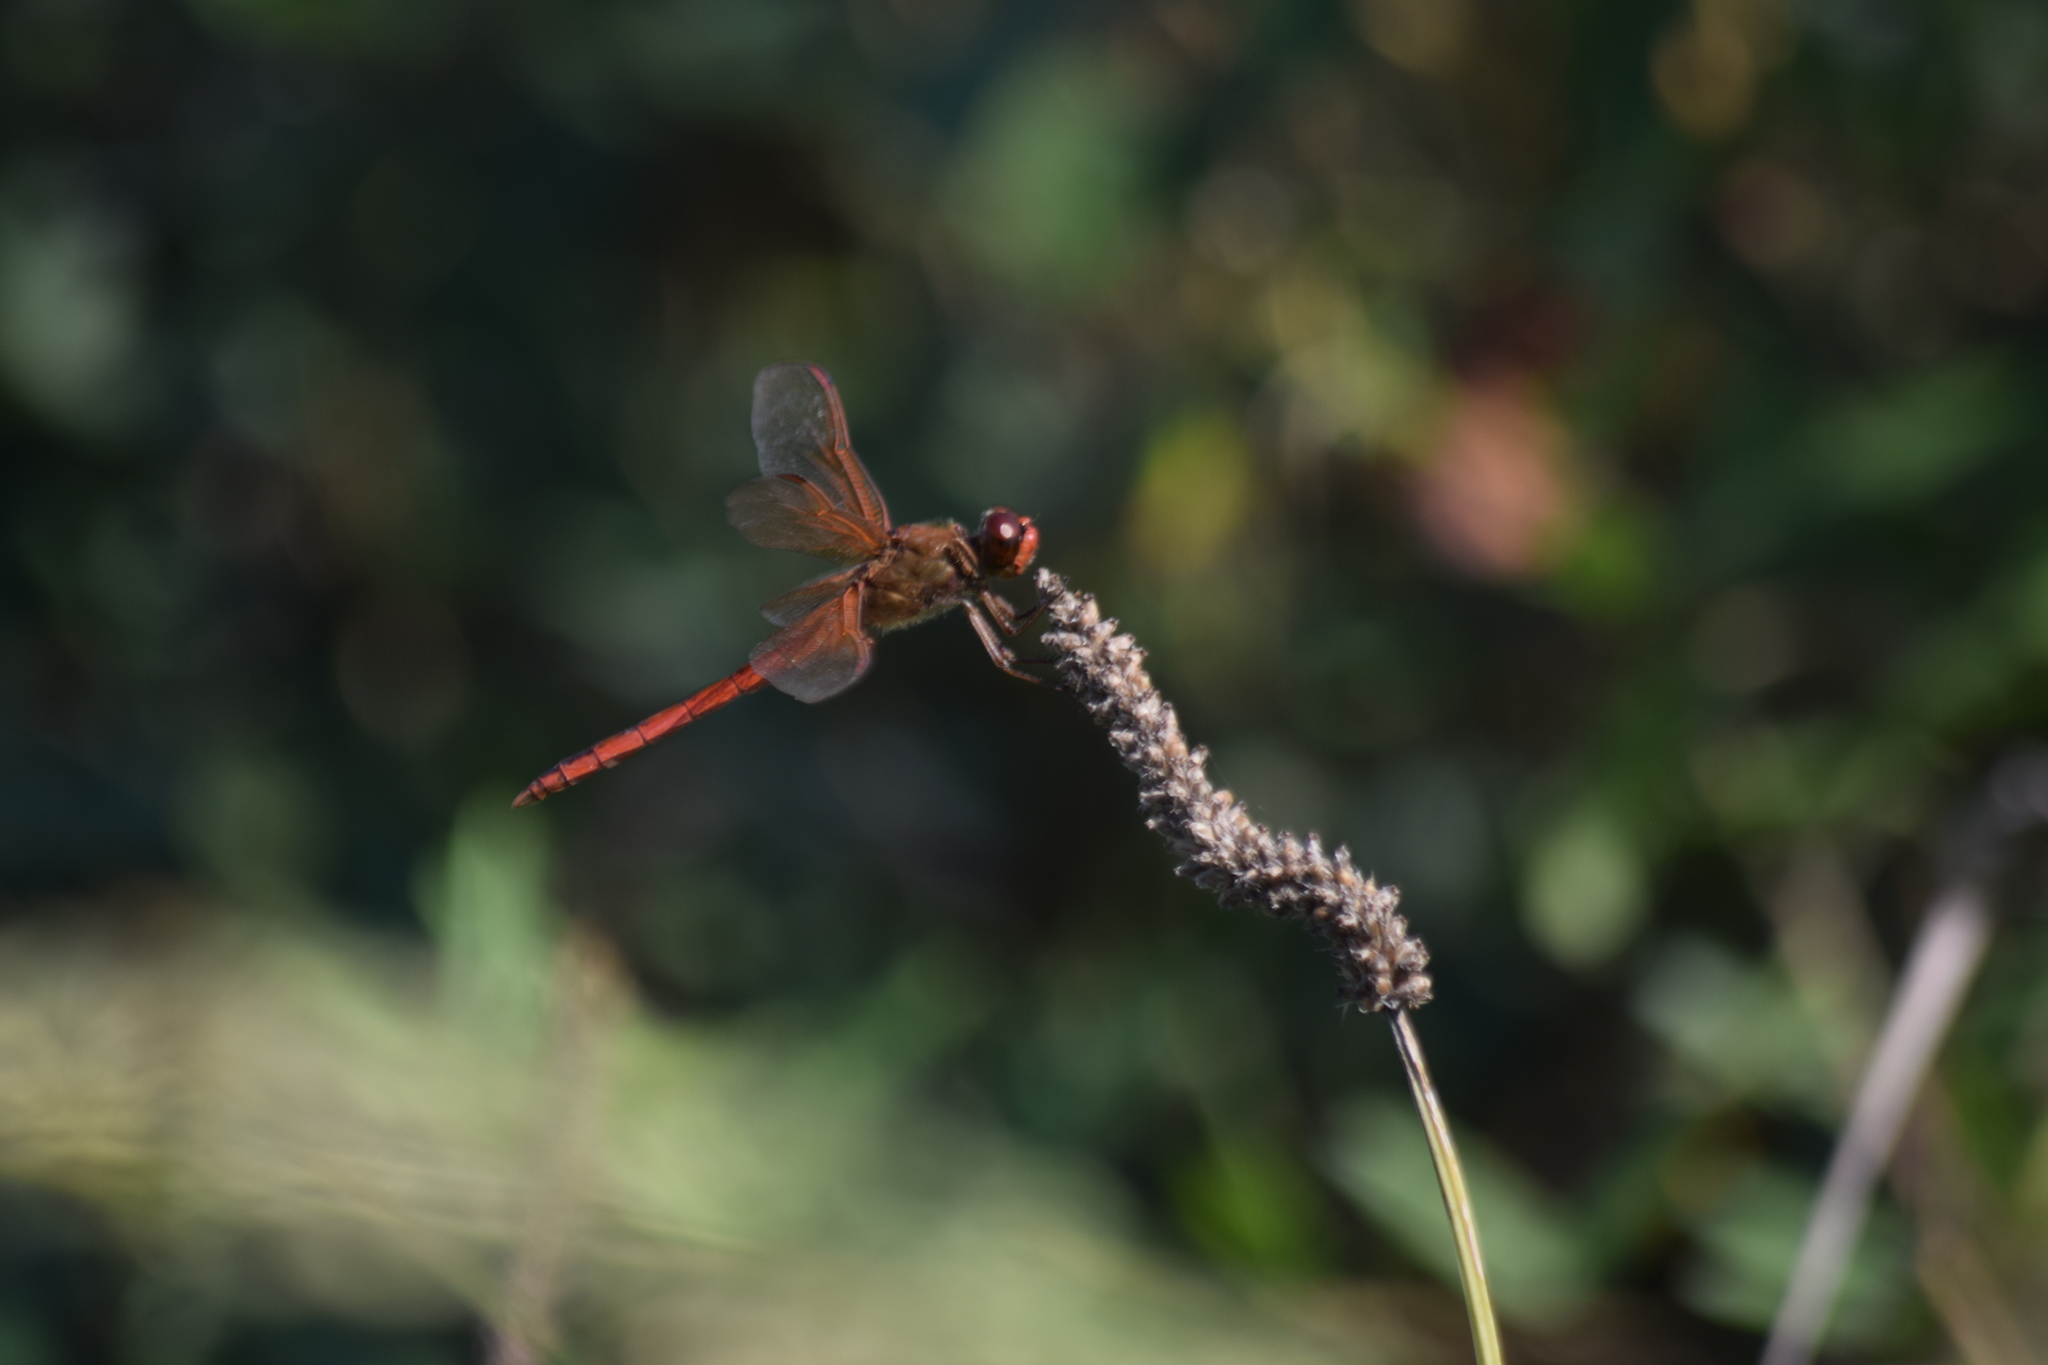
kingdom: Animalia
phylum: Arthropoda
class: Insecta
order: Odonata
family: Libellulidae
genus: Libellula
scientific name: Libellula needhami
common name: Needham's skimmer
